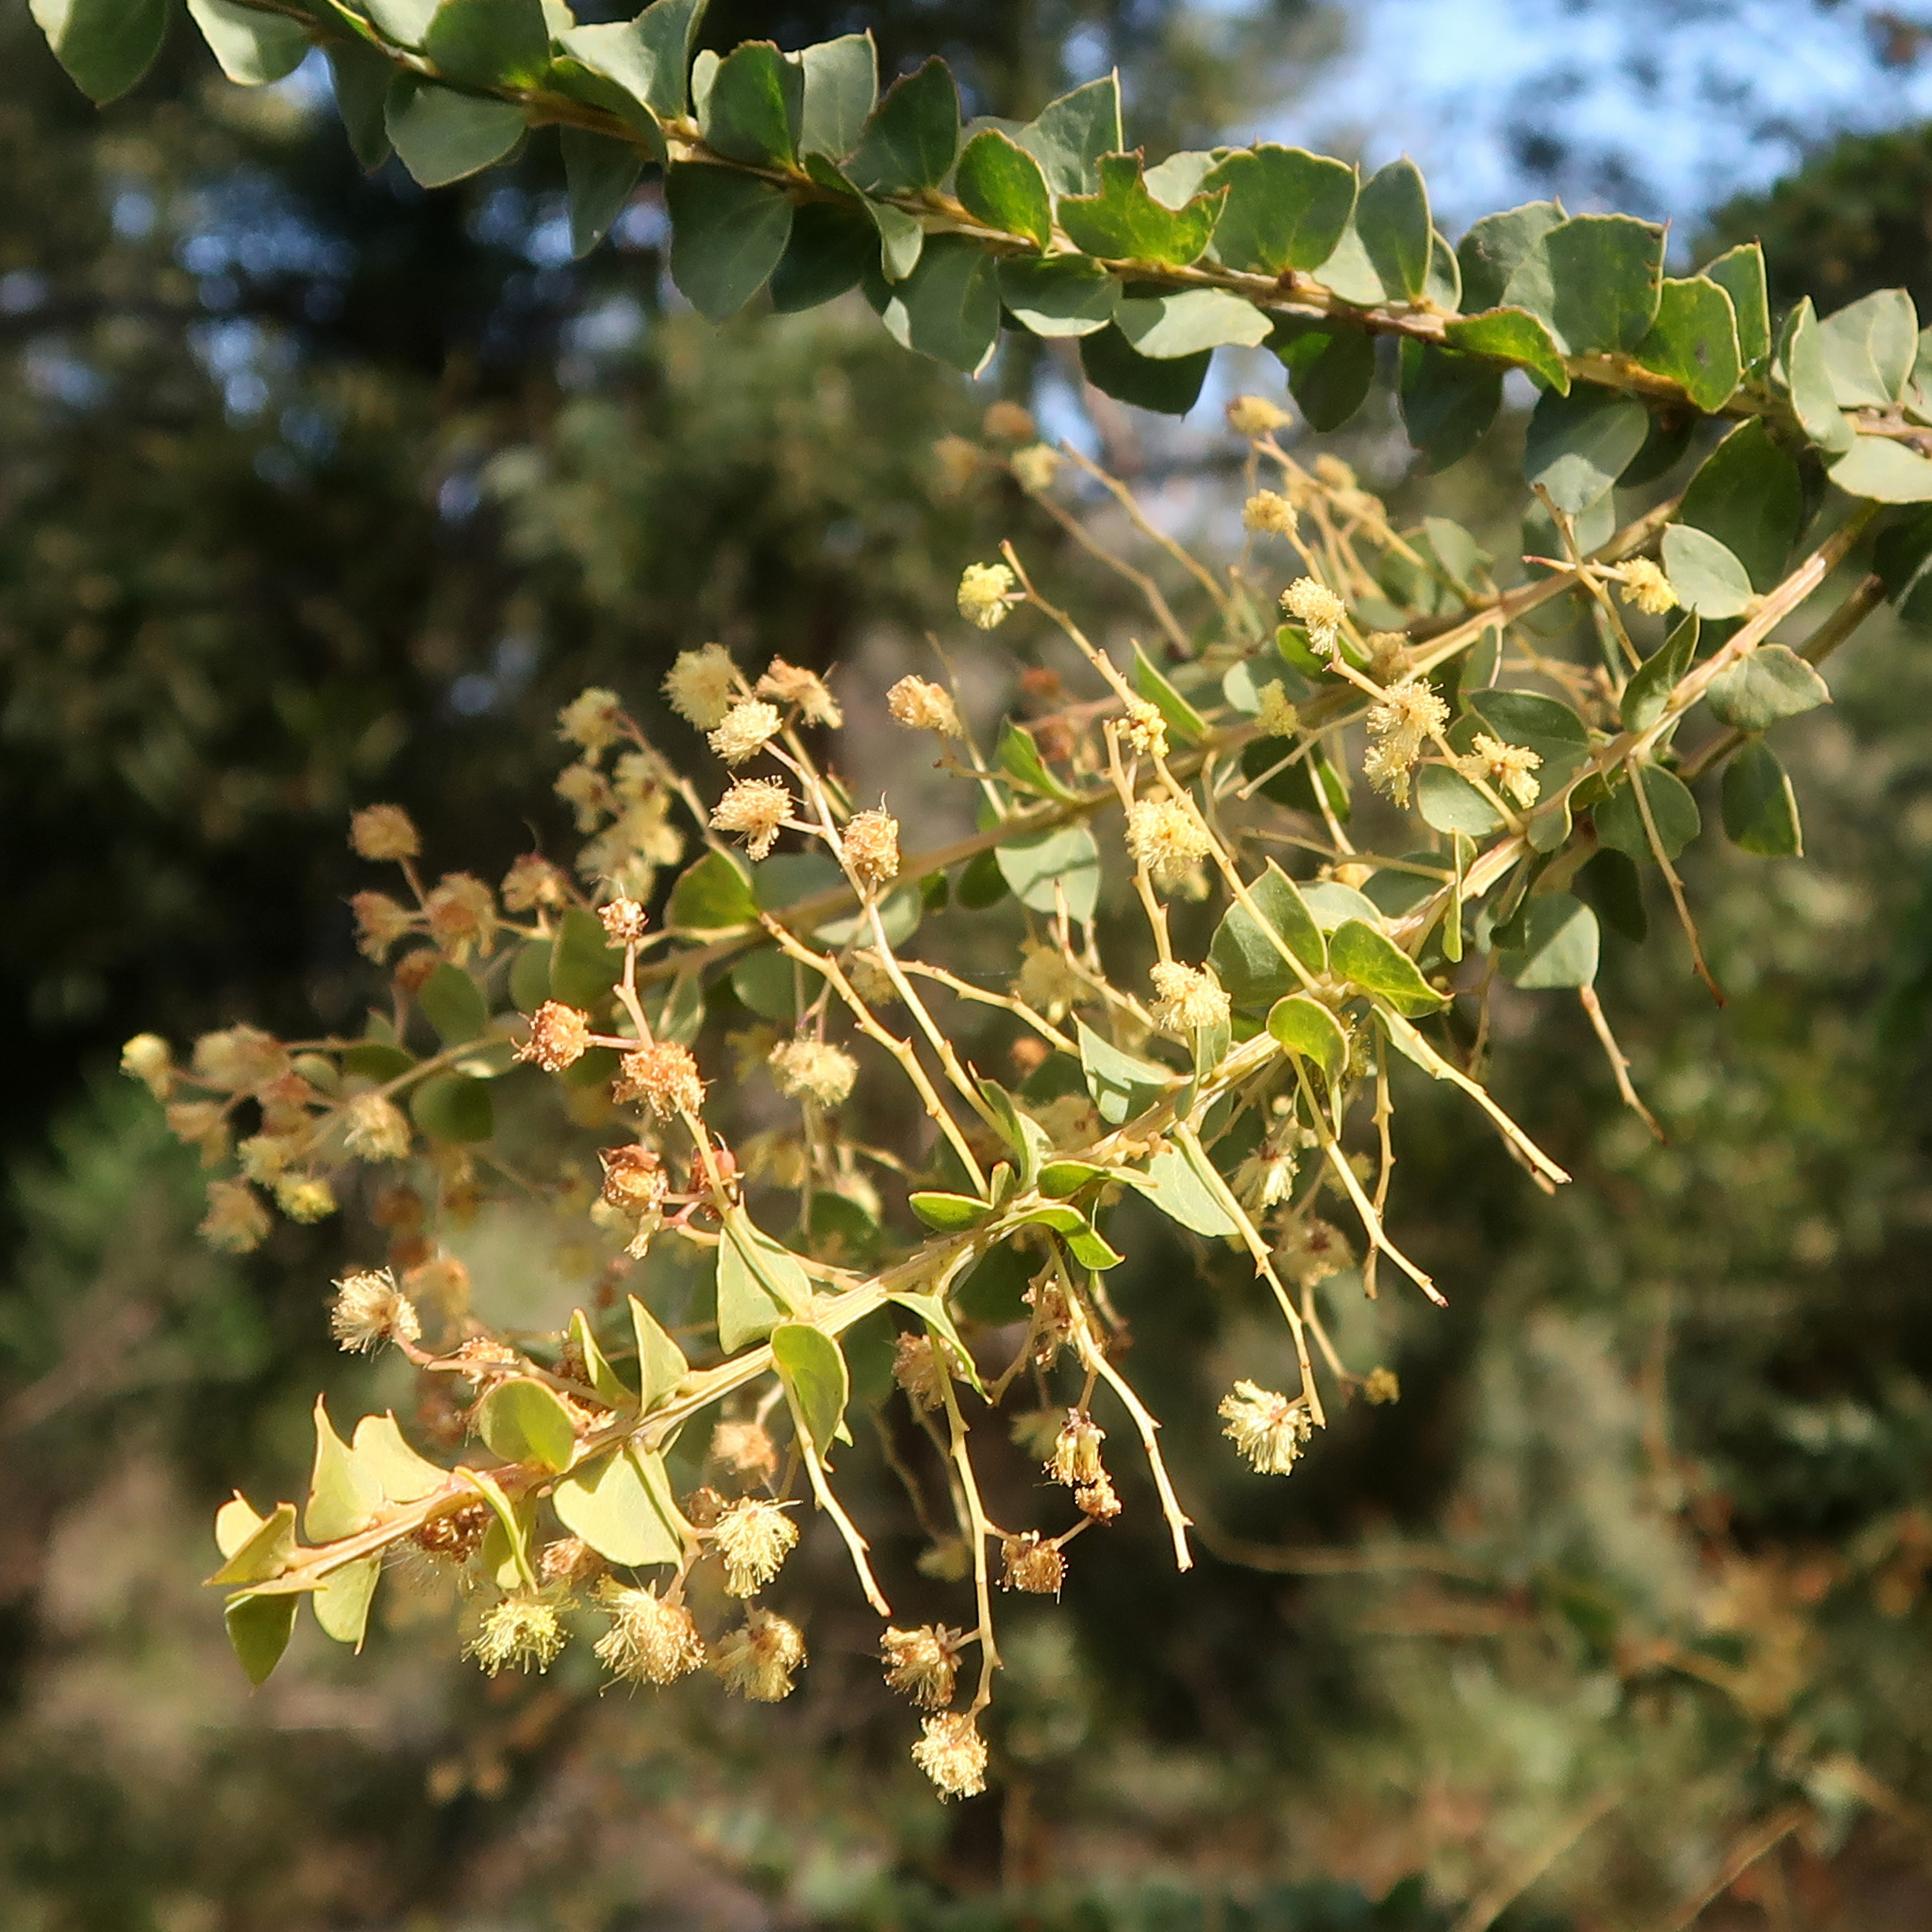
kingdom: Plantae
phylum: Tracheophyta
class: Magnoliopsida
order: Fabales
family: Fabaceae
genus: Acacia
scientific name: Acacia pravissima
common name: Tumut wattle
